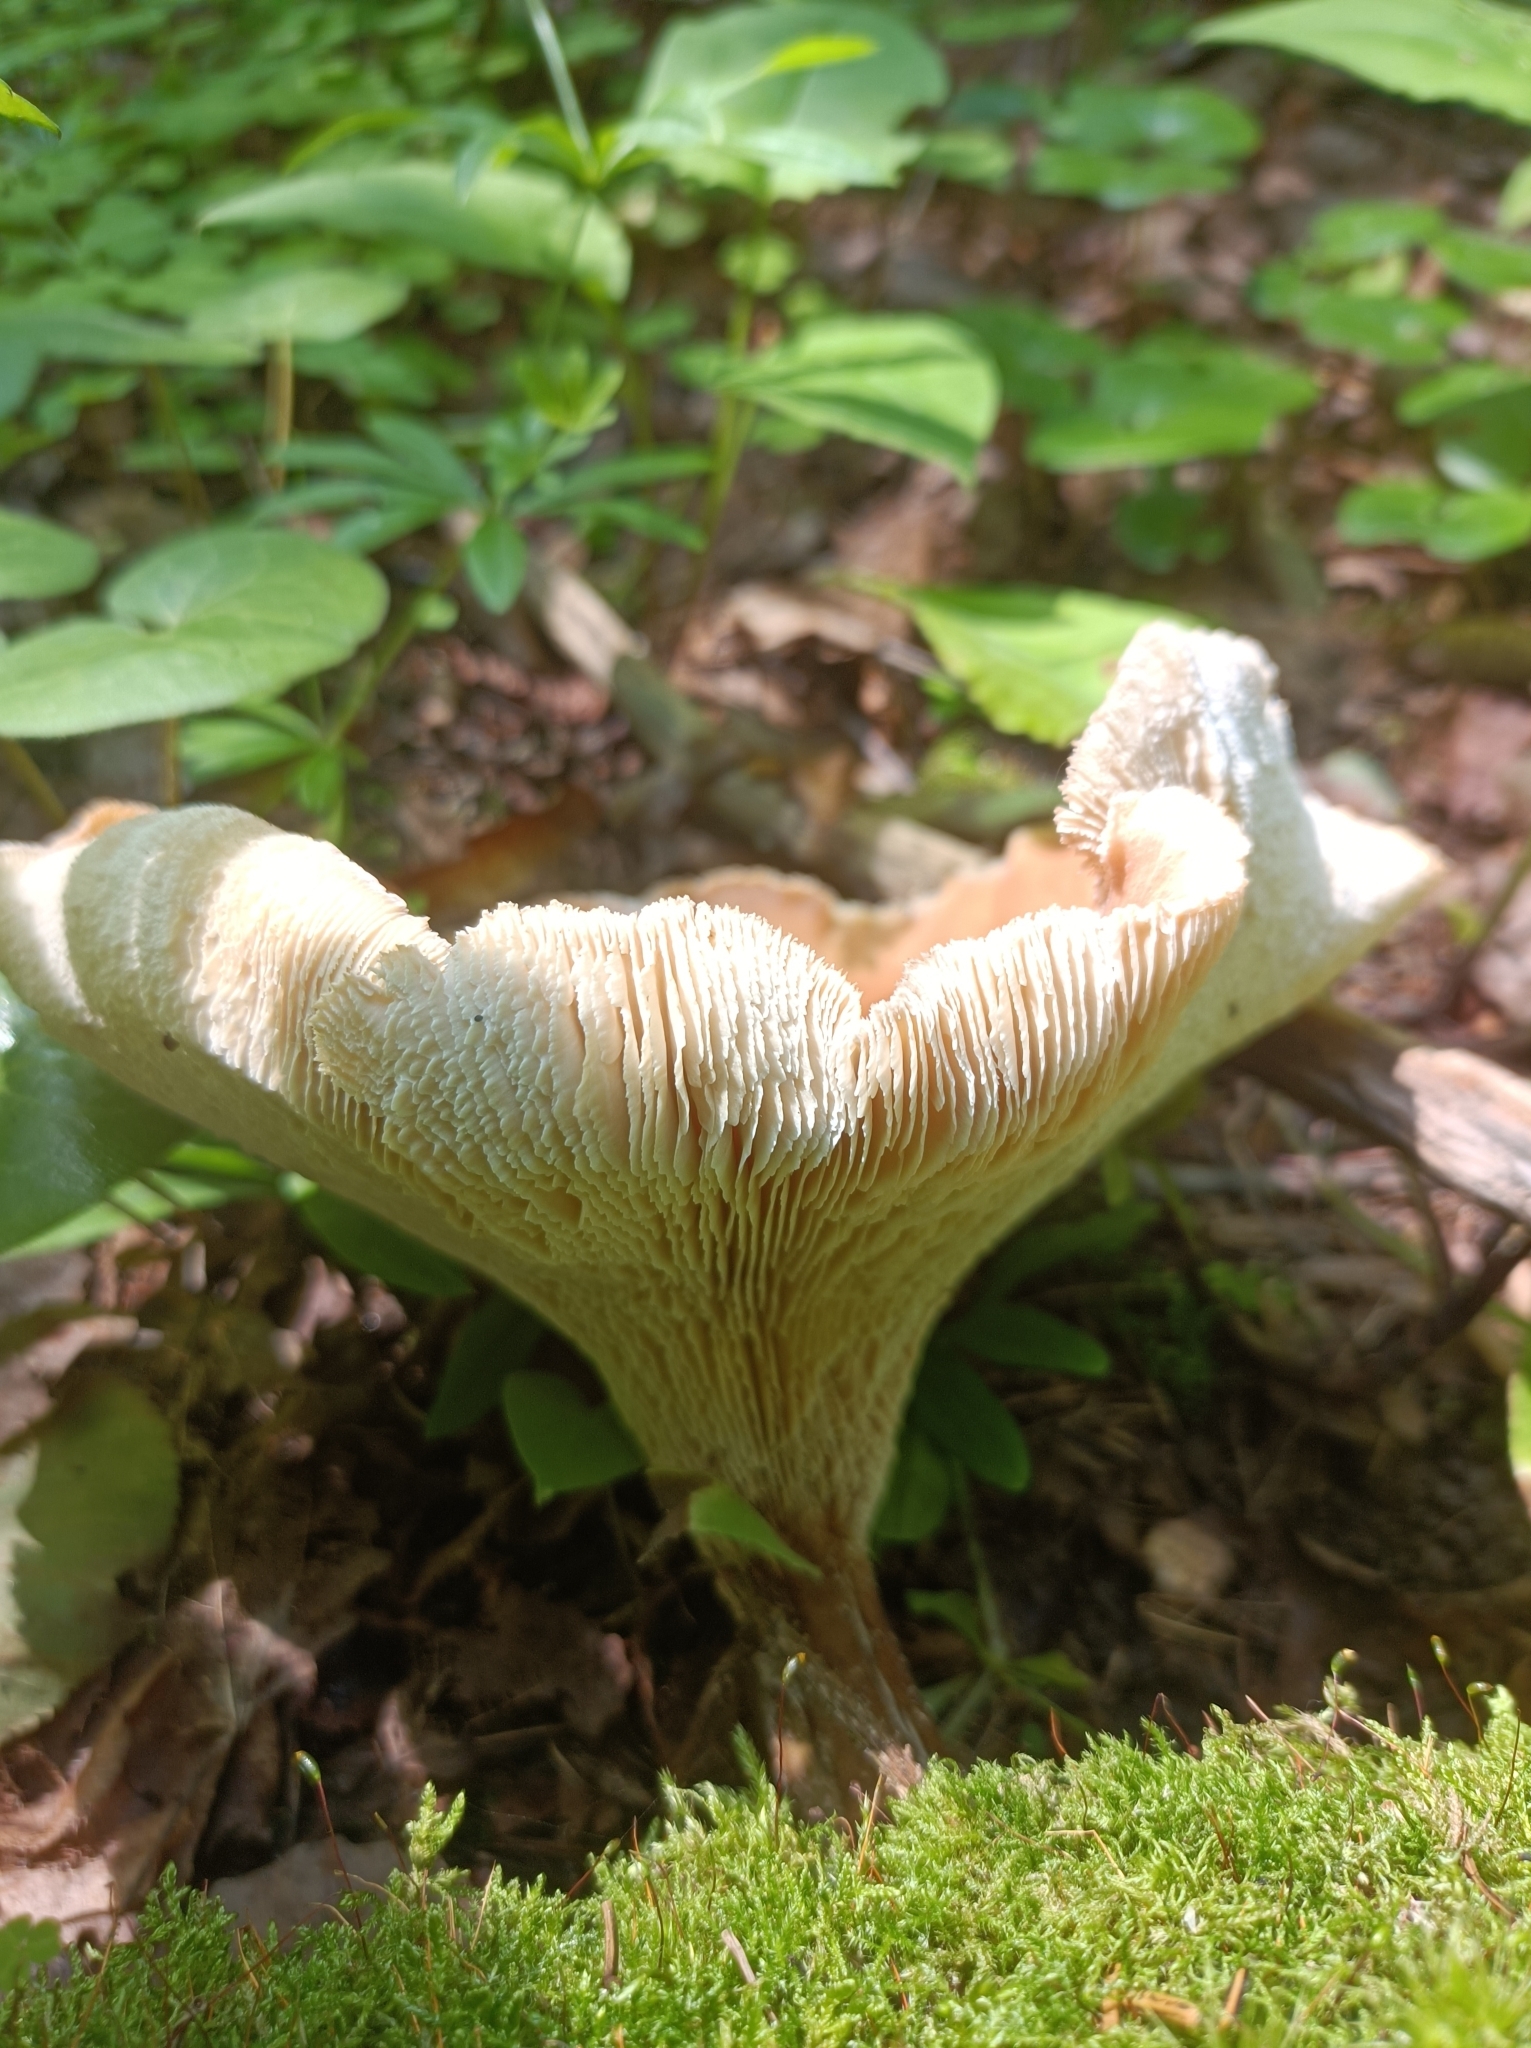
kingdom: Fungi
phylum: Basidiomycota
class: Agaricomycetes
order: Gloeophyllales
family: Gloeophyllaceae
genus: Neolentinus
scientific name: Neolentinus cyathiformis
